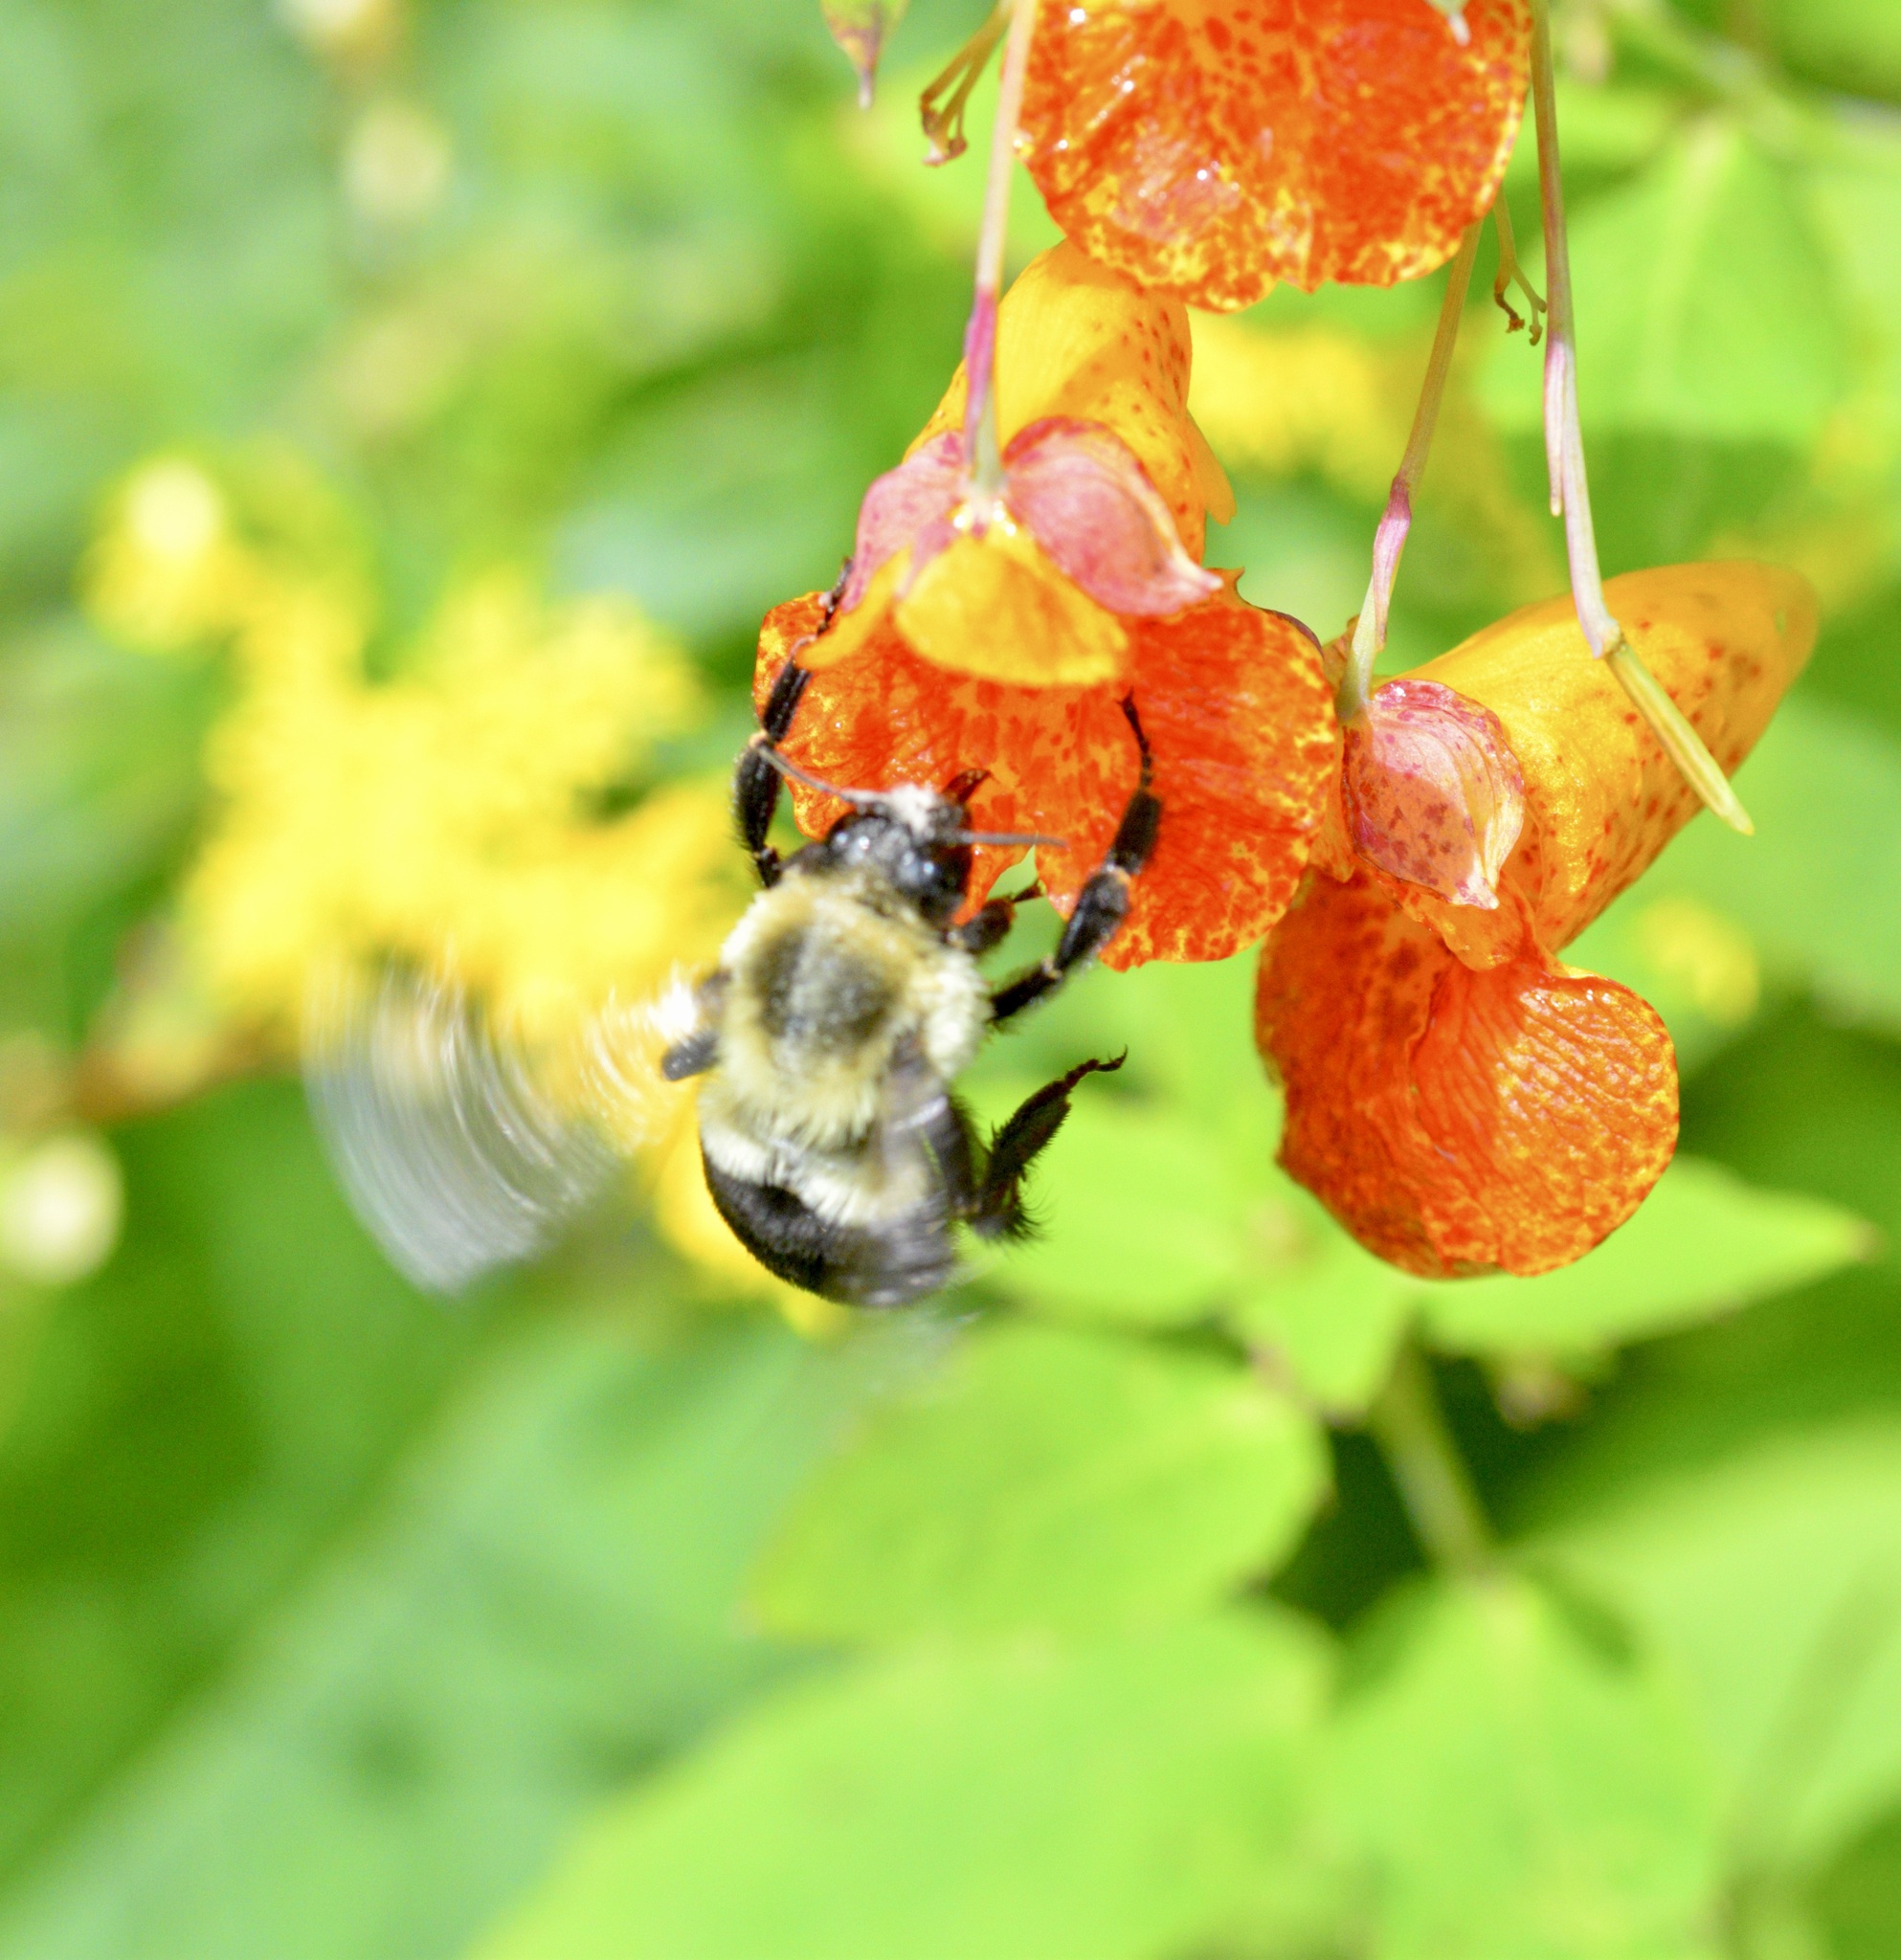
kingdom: Animalia
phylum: Arthropoda
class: Insecta
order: Hymenoptera
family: Apidae
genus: Bombus
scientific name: Bombus impatiens
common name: Common eastern bumble bee
